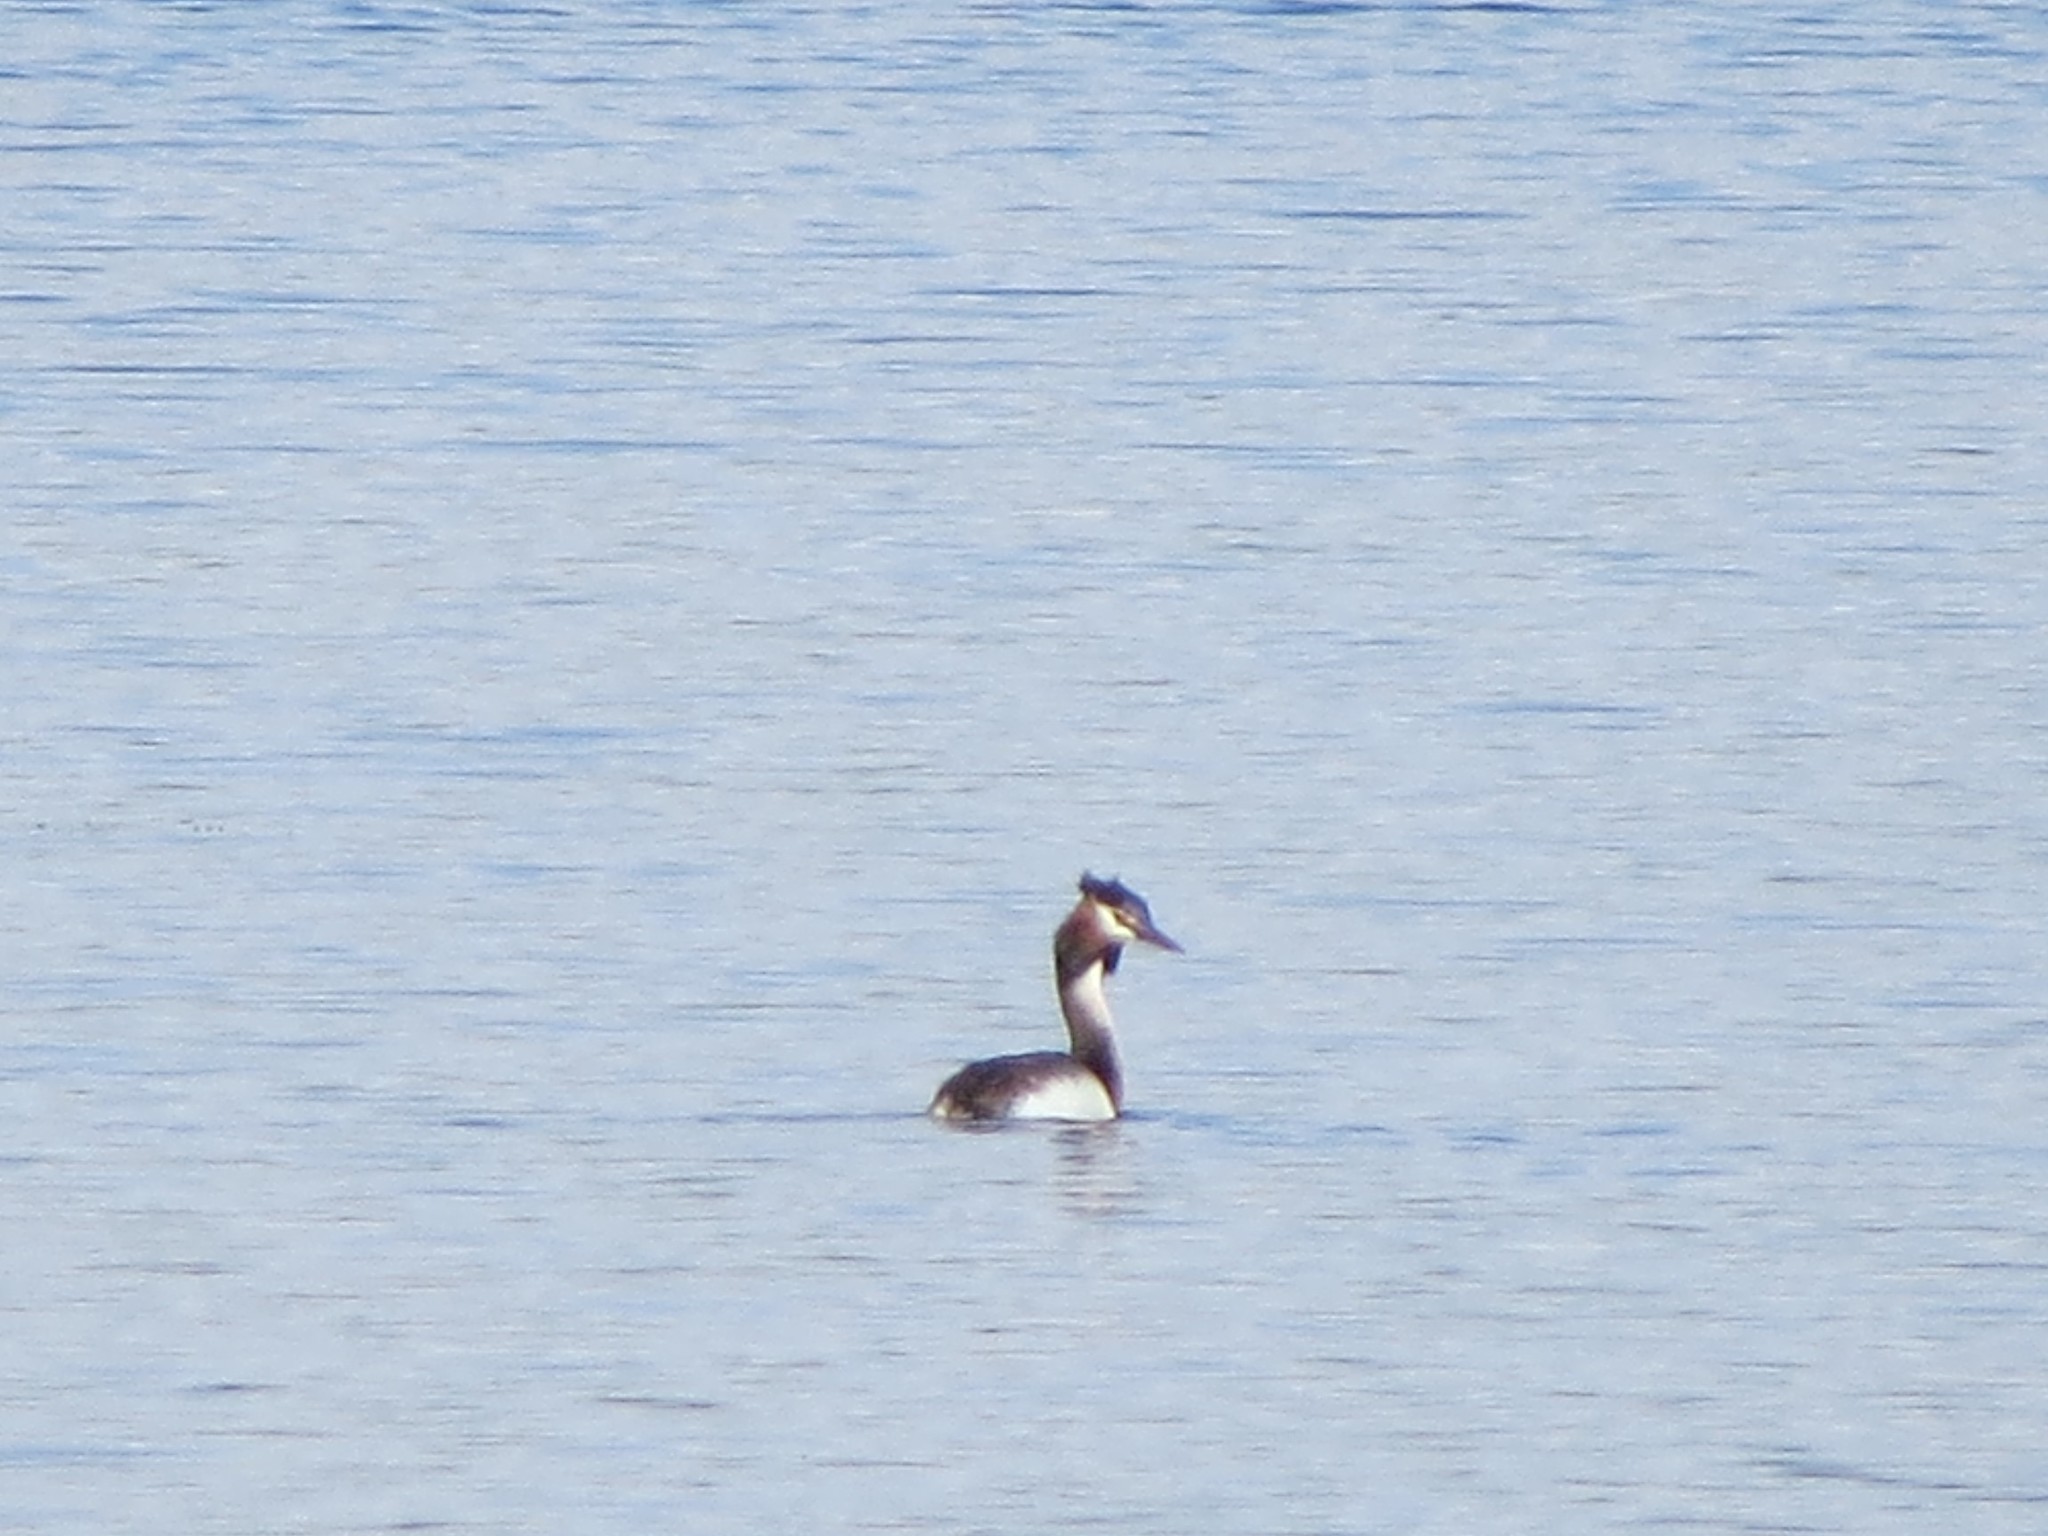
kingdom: Animalia
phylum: Chordata
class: Aves
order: Podicipediformes
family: Podicipedidae
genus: Podiceps
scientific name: Podiceps cristatus
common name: Great crested grebe
